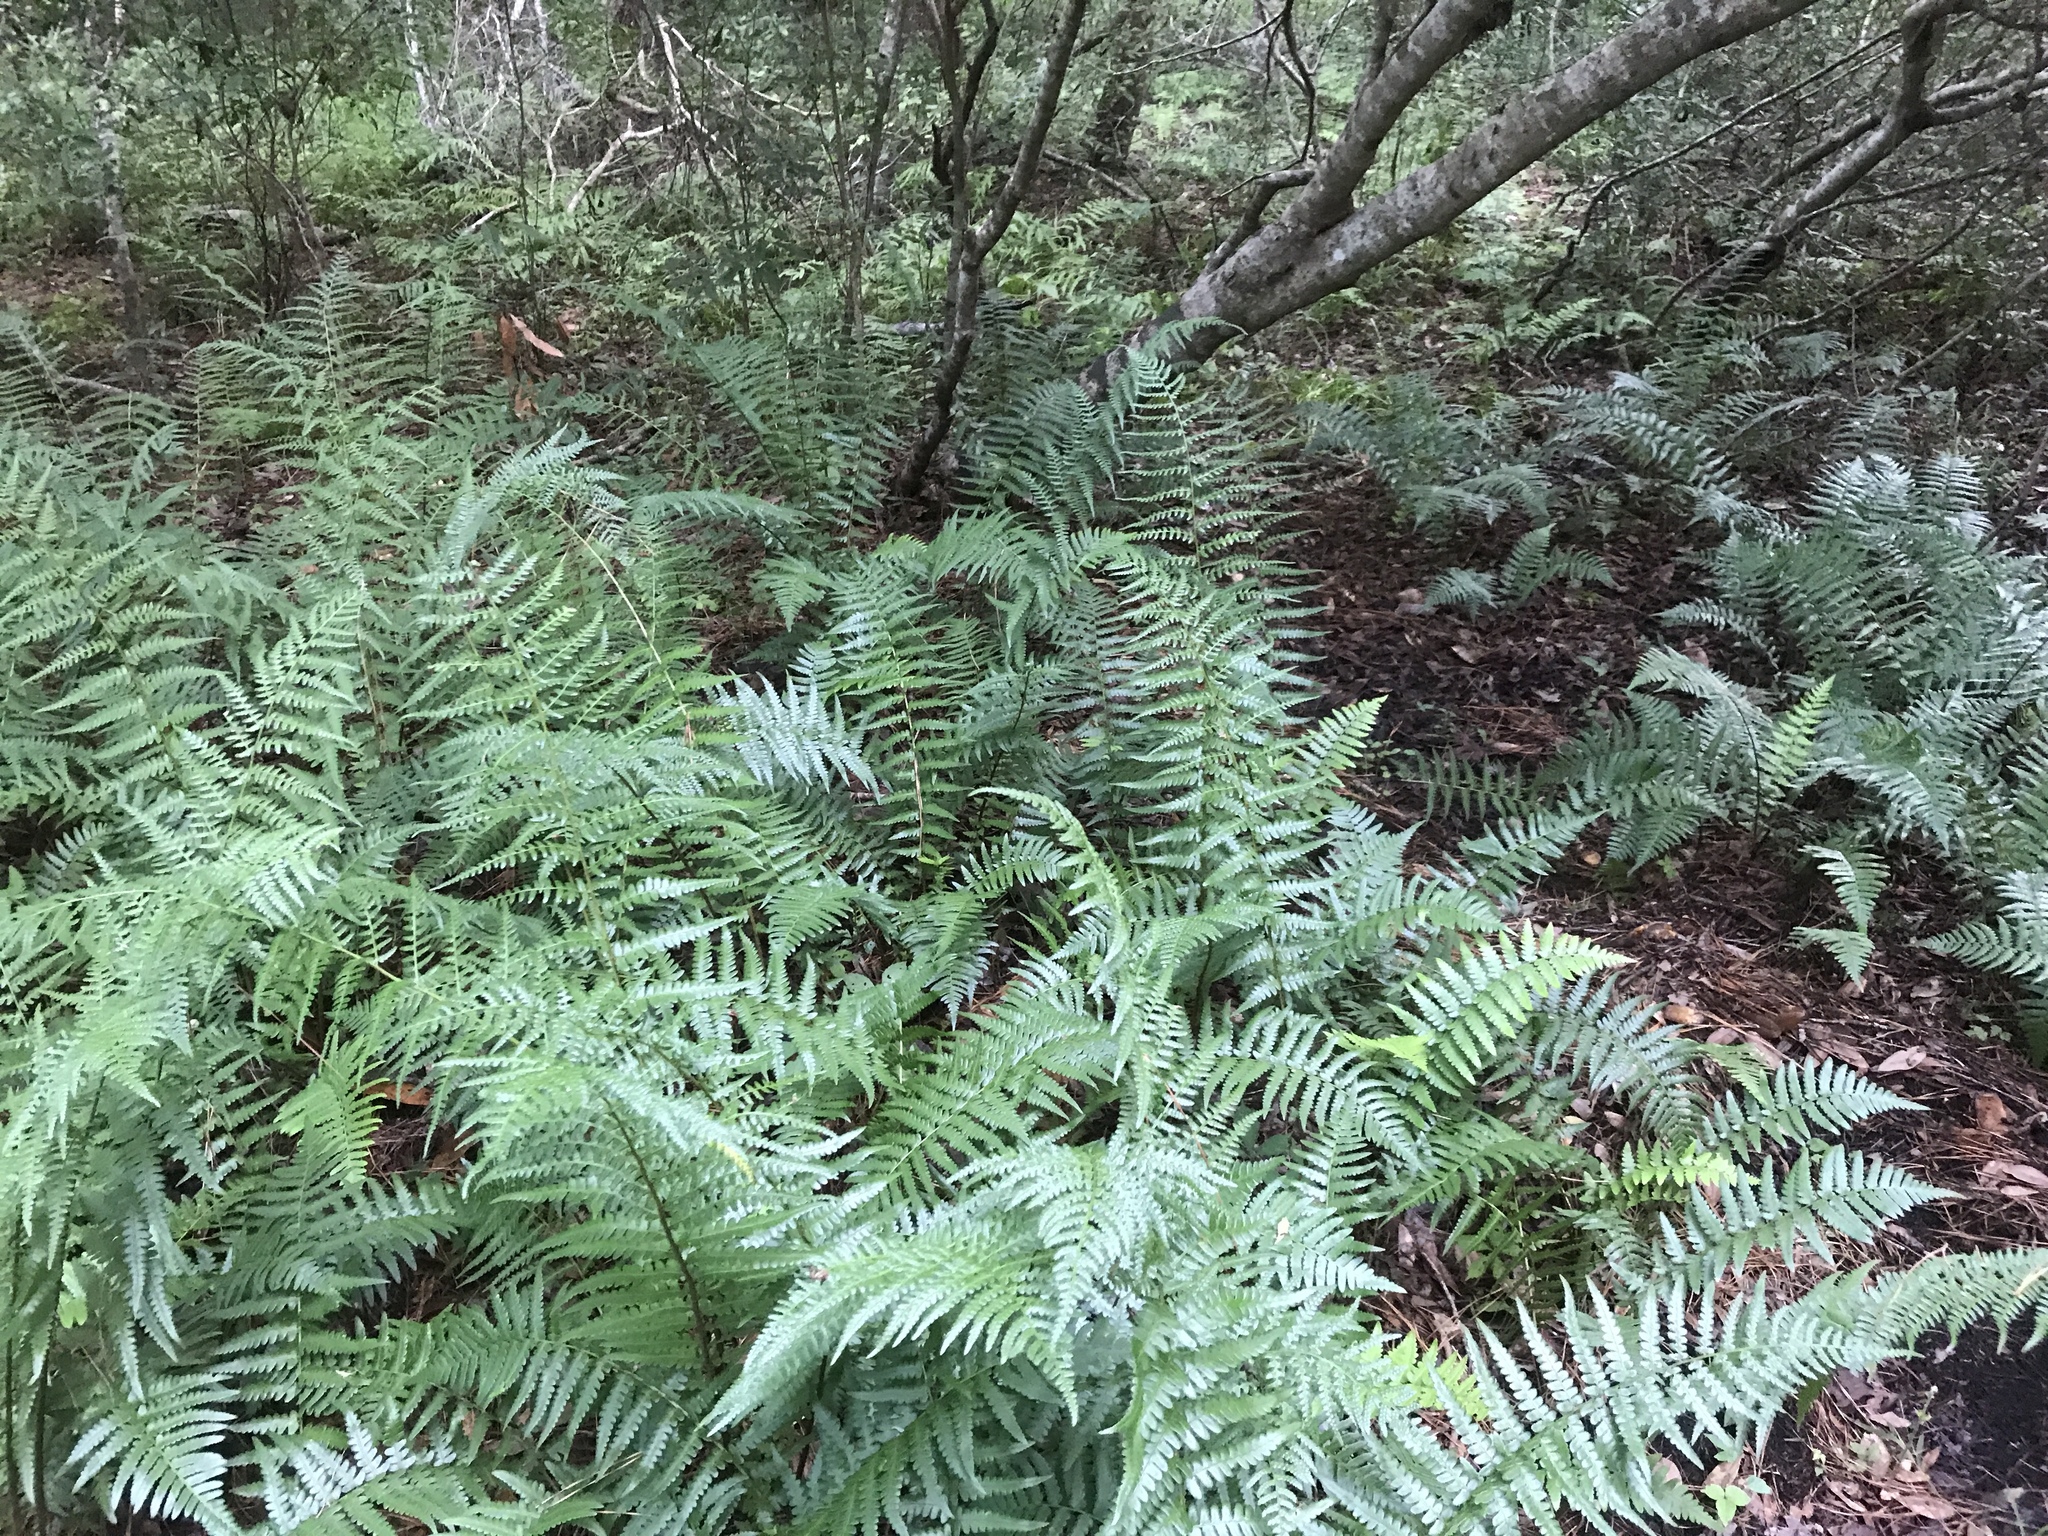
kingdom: Plantae
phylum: Tracheophyta
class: Polypodiopsida
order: Polypodiales
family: Dryopteridaceae
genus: Dryopteris
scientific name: Dryopteris ludoviciana
